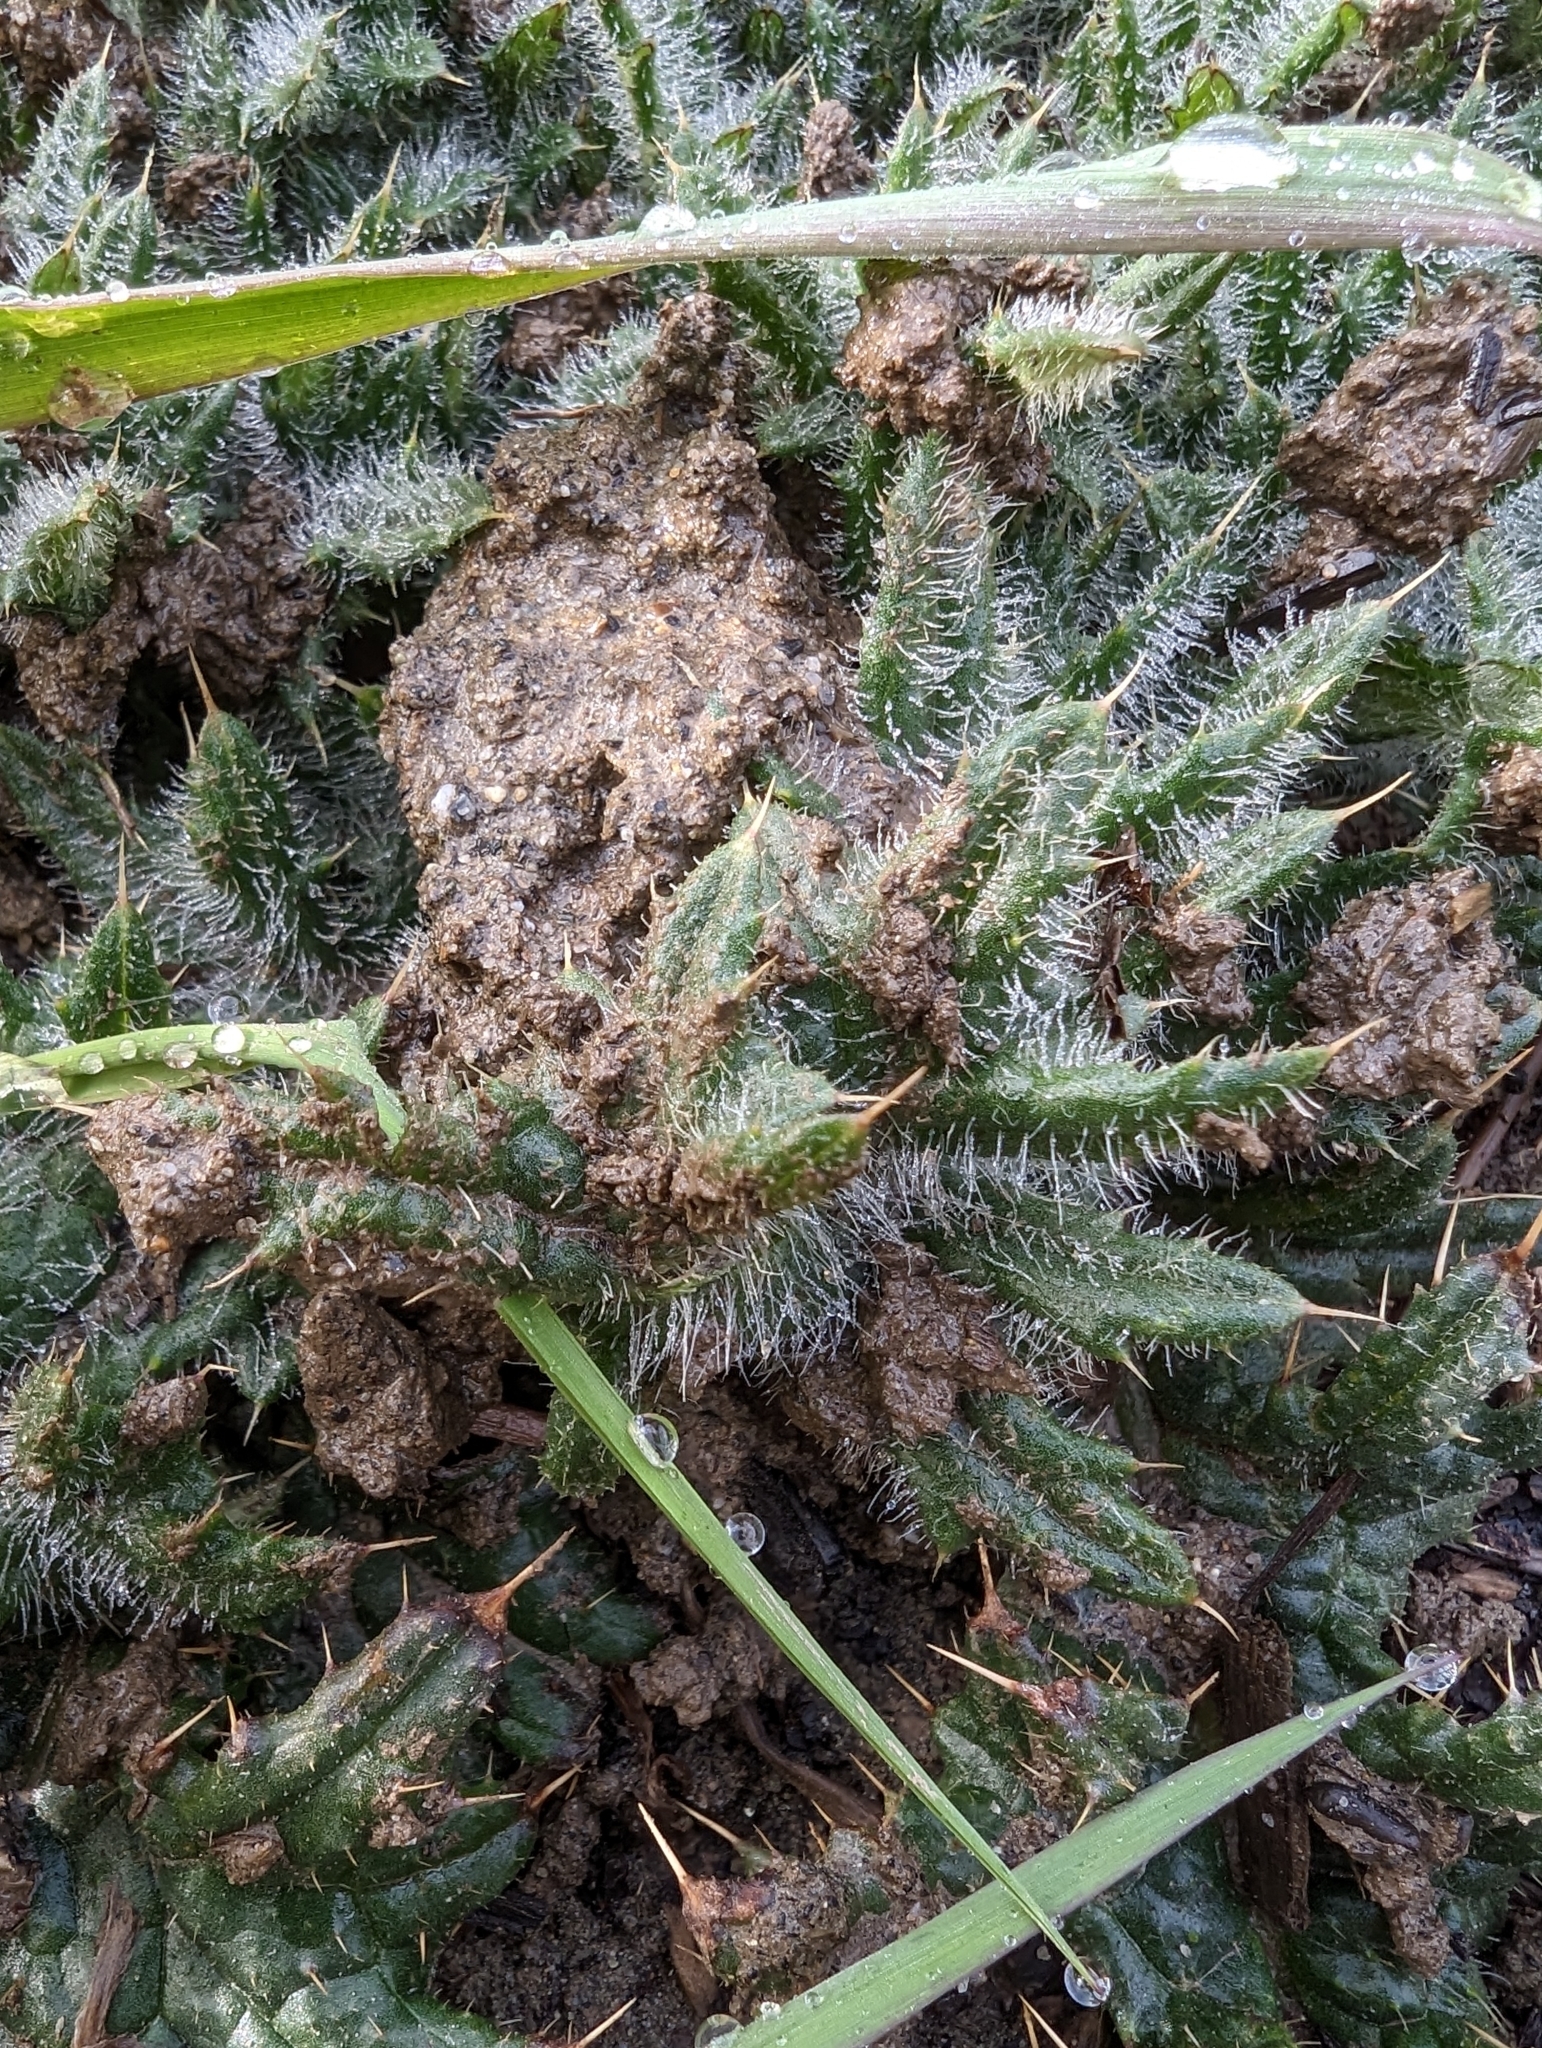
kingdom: Plantae
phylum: Tracheophyta
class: Magnoliopsida
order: Asterales
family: Asteraceae
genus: Cirsium
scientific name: Cirsium vulgare
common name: Bull thistle
